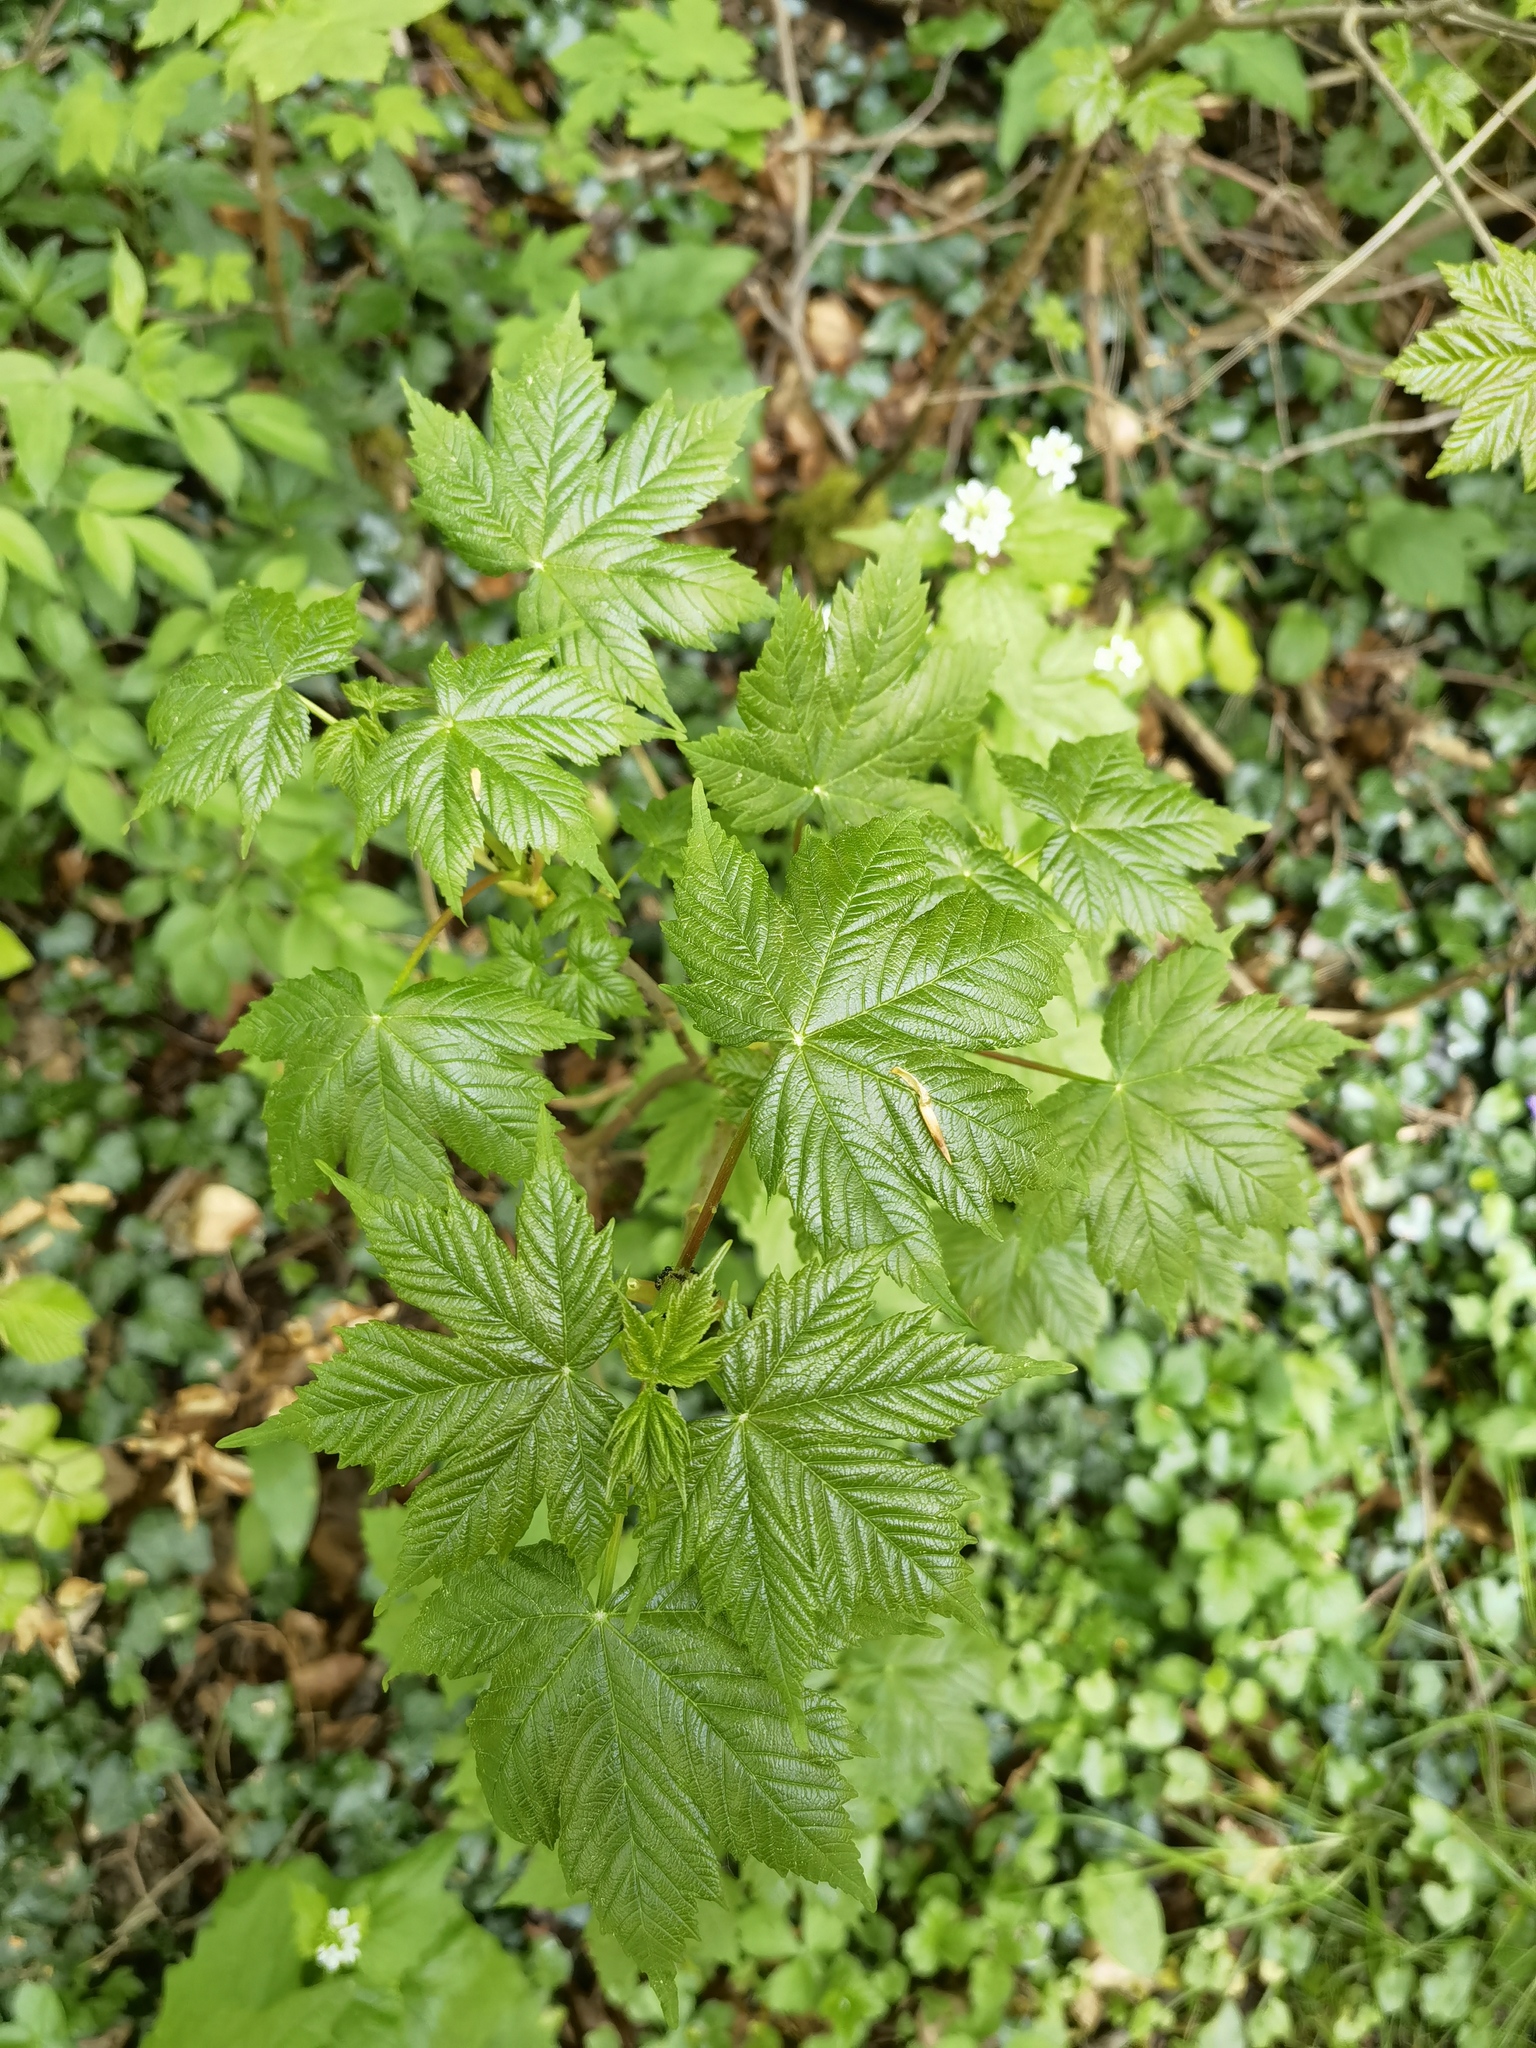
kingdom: Plantae
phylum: Tracheophyta
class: Magnoliopsida
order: Sapindales
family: Sapindaceae
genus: Acer
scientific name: Acer pseudoplatanus
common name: Sycamore
